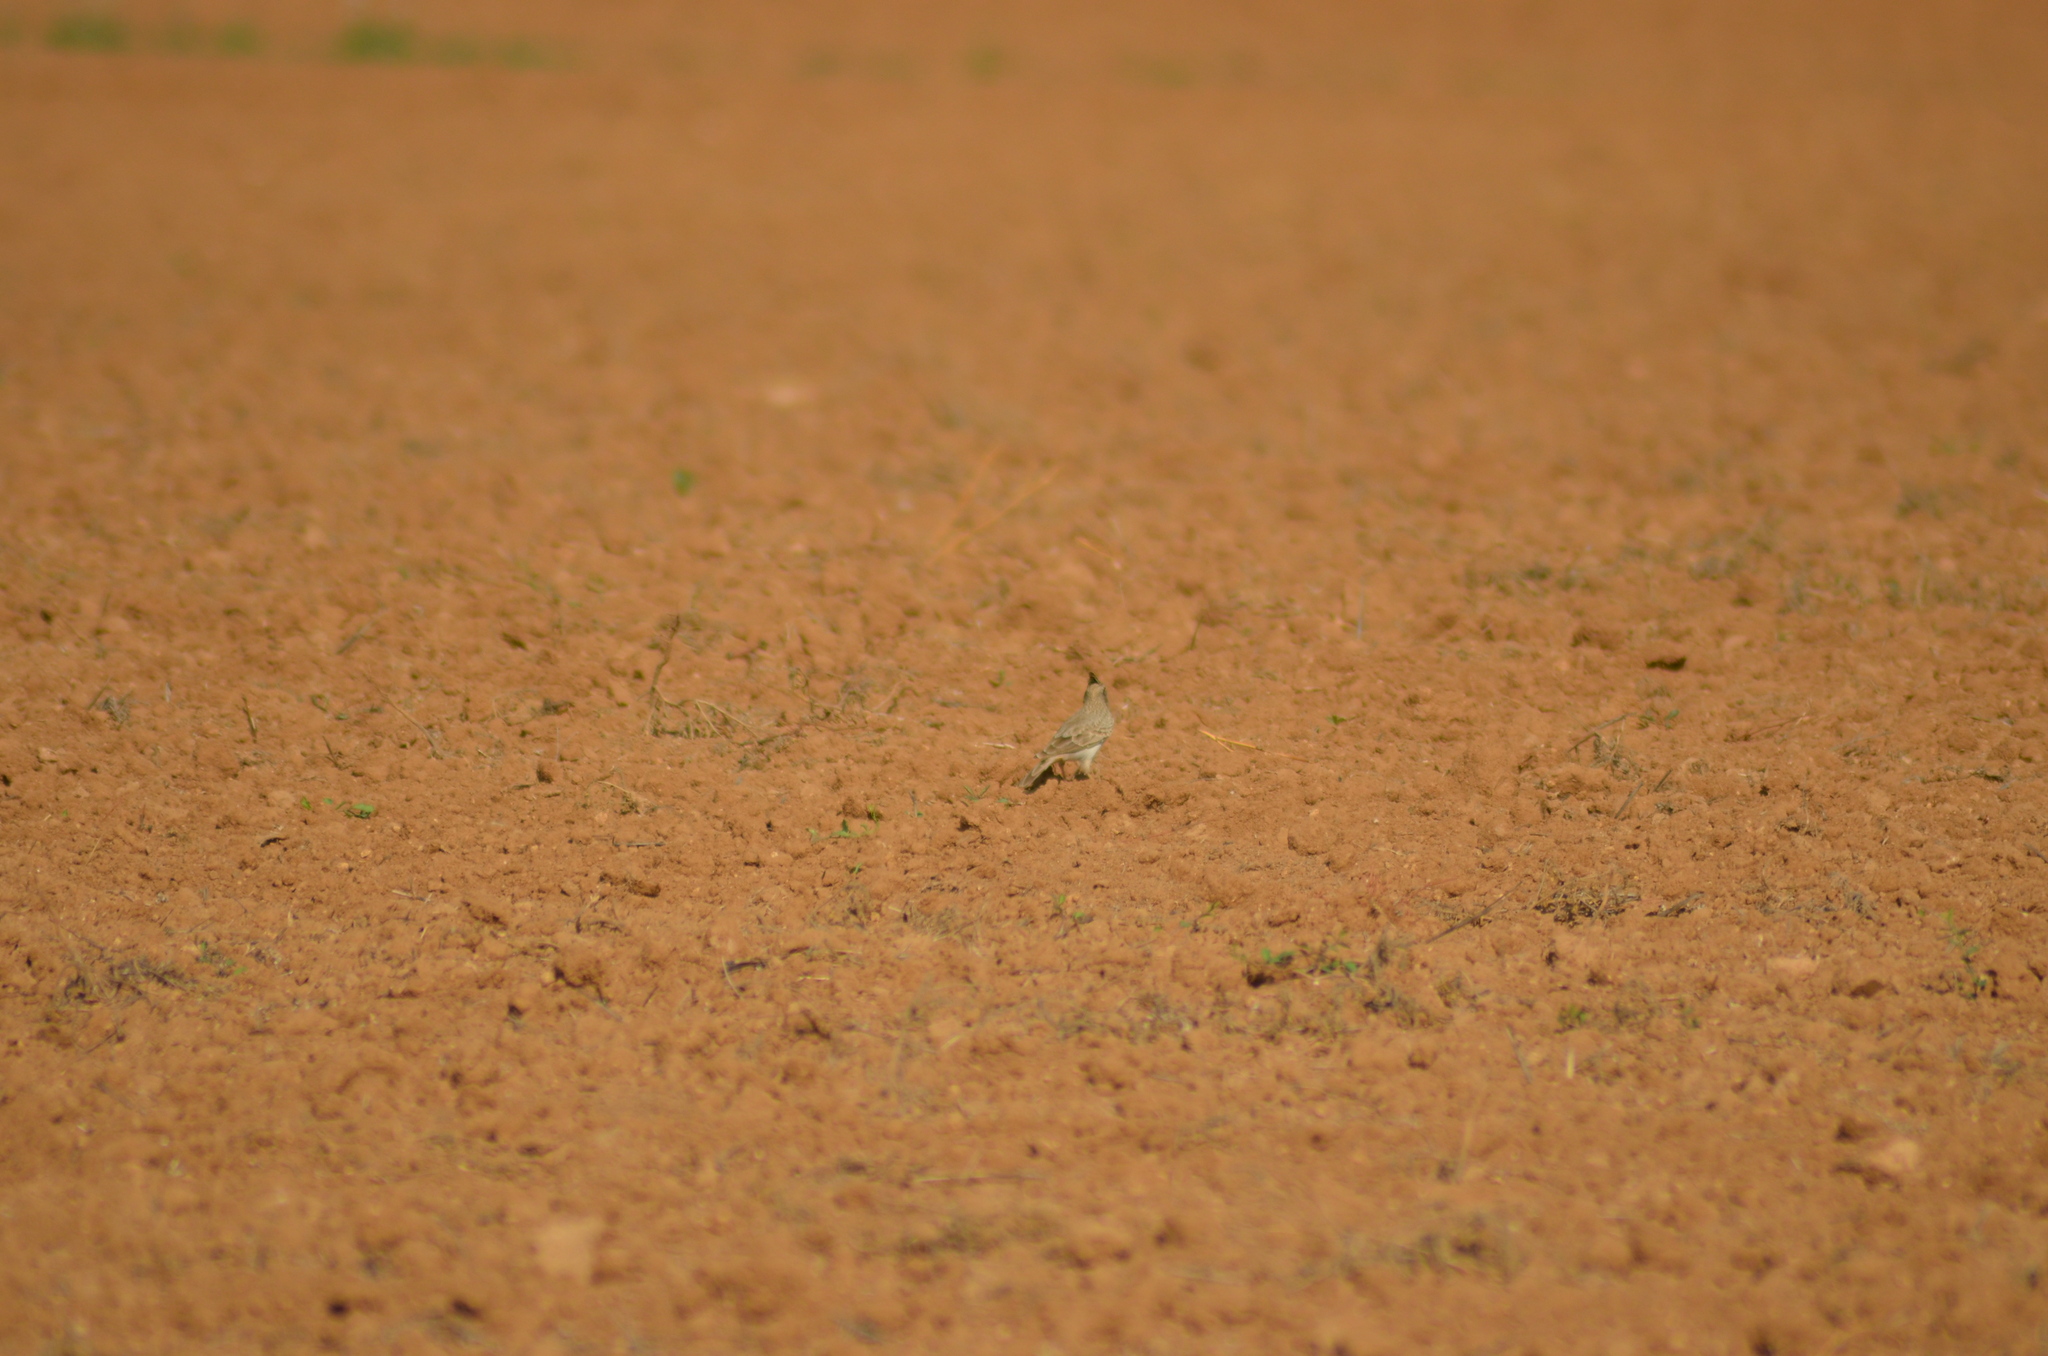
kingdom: Animalia
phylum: Chordata
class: Aves
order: Passeriformes
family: Alaudidae
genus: Galerida
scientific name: Galerida cristata
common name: Crested lark
